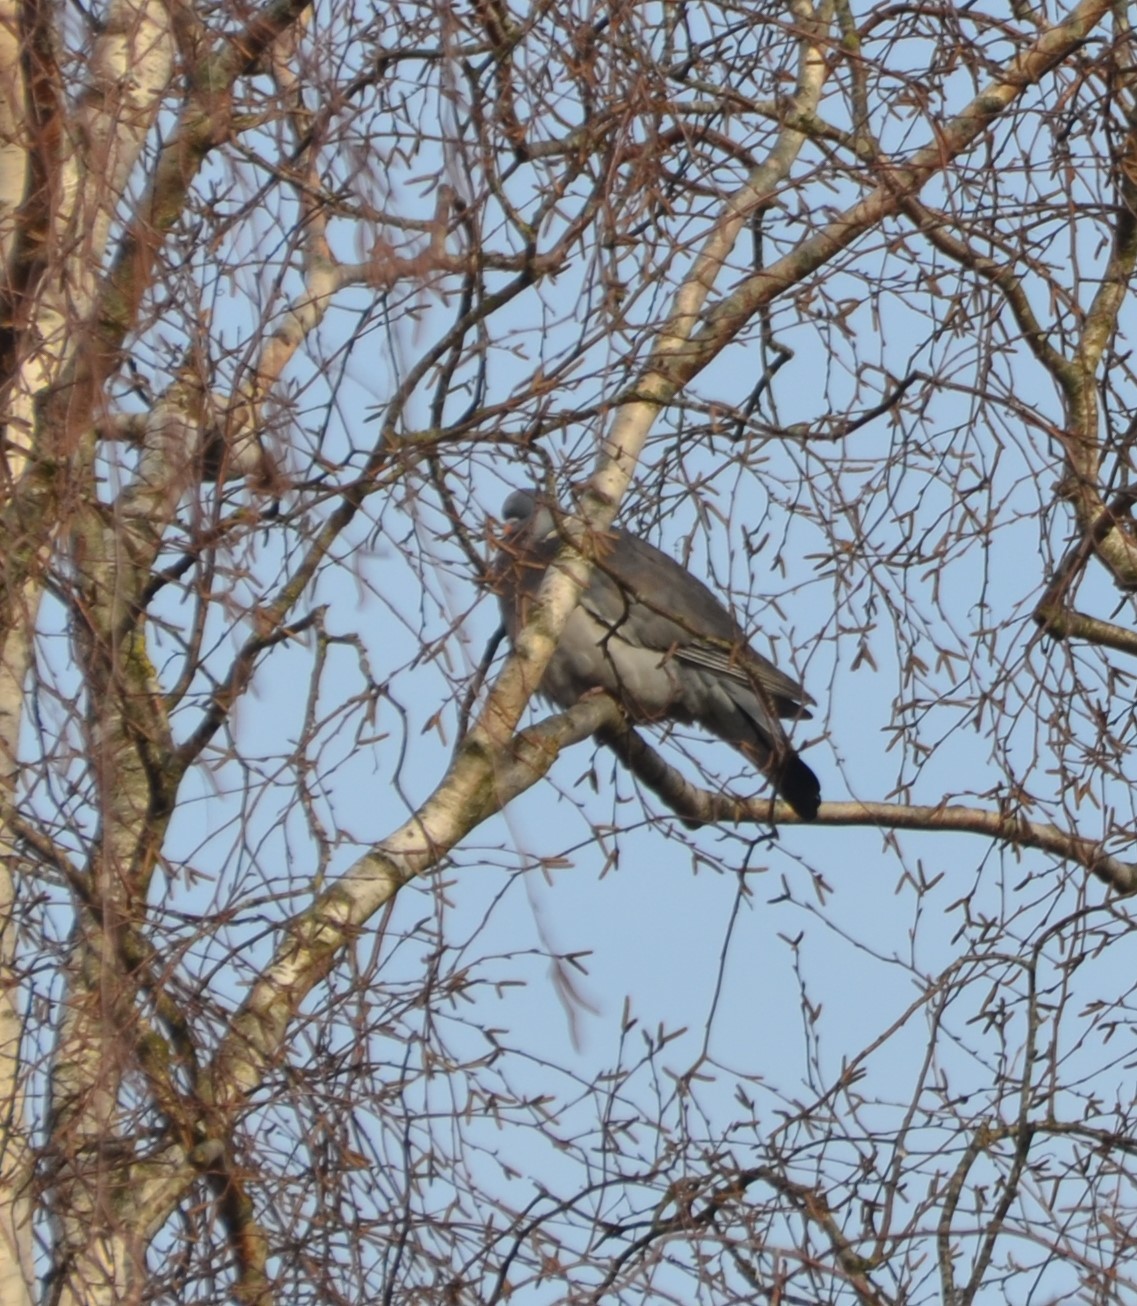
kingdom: Animalia
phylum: Chordata
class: Aves
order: Columbiformes
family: Columbidae
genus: Columba
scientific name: Columba palumbus
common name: Common wood pigeon
